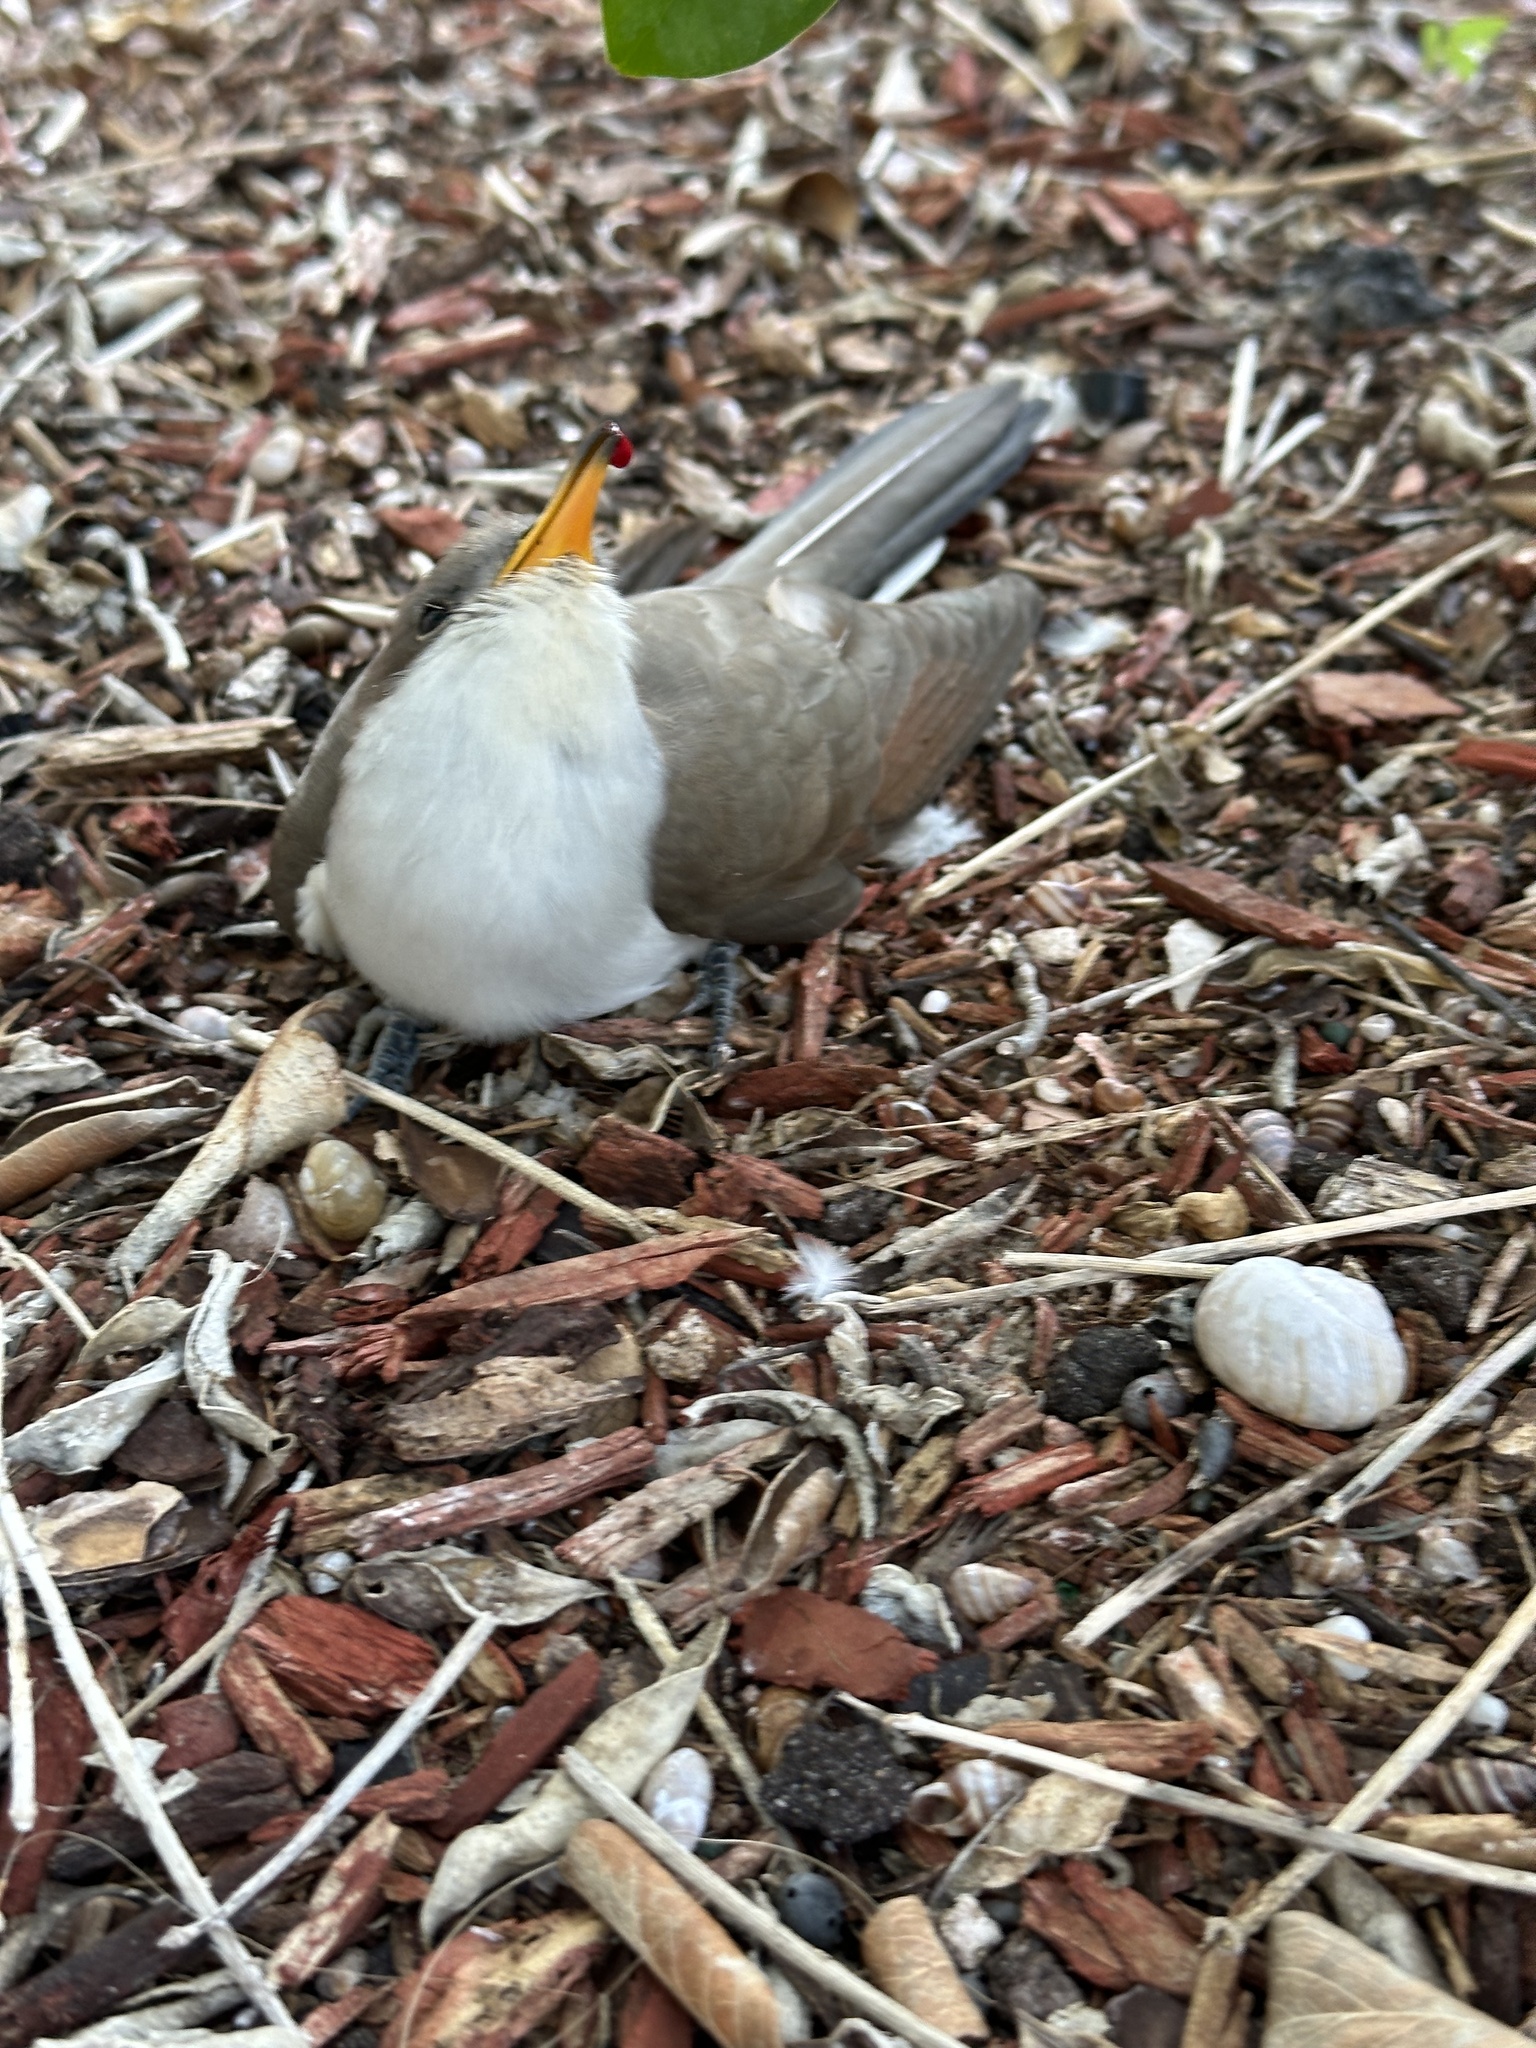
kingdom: Animalia
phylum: Chordata
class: Aves
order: Cuculiformes
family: Cuculidae
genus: Coccyzus
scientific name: Coccyzus americanus
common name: Yellow-billed cuckoo
